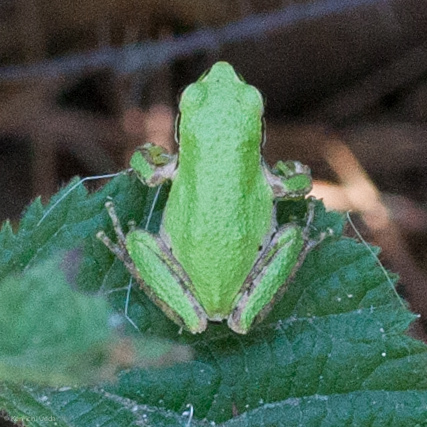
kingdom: Animalia
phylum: Chordata
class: Amphibia
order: Anura
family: Hylidae
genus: Pseudacris
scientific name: Pseudacris regilla
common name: Pacific chorus frog
